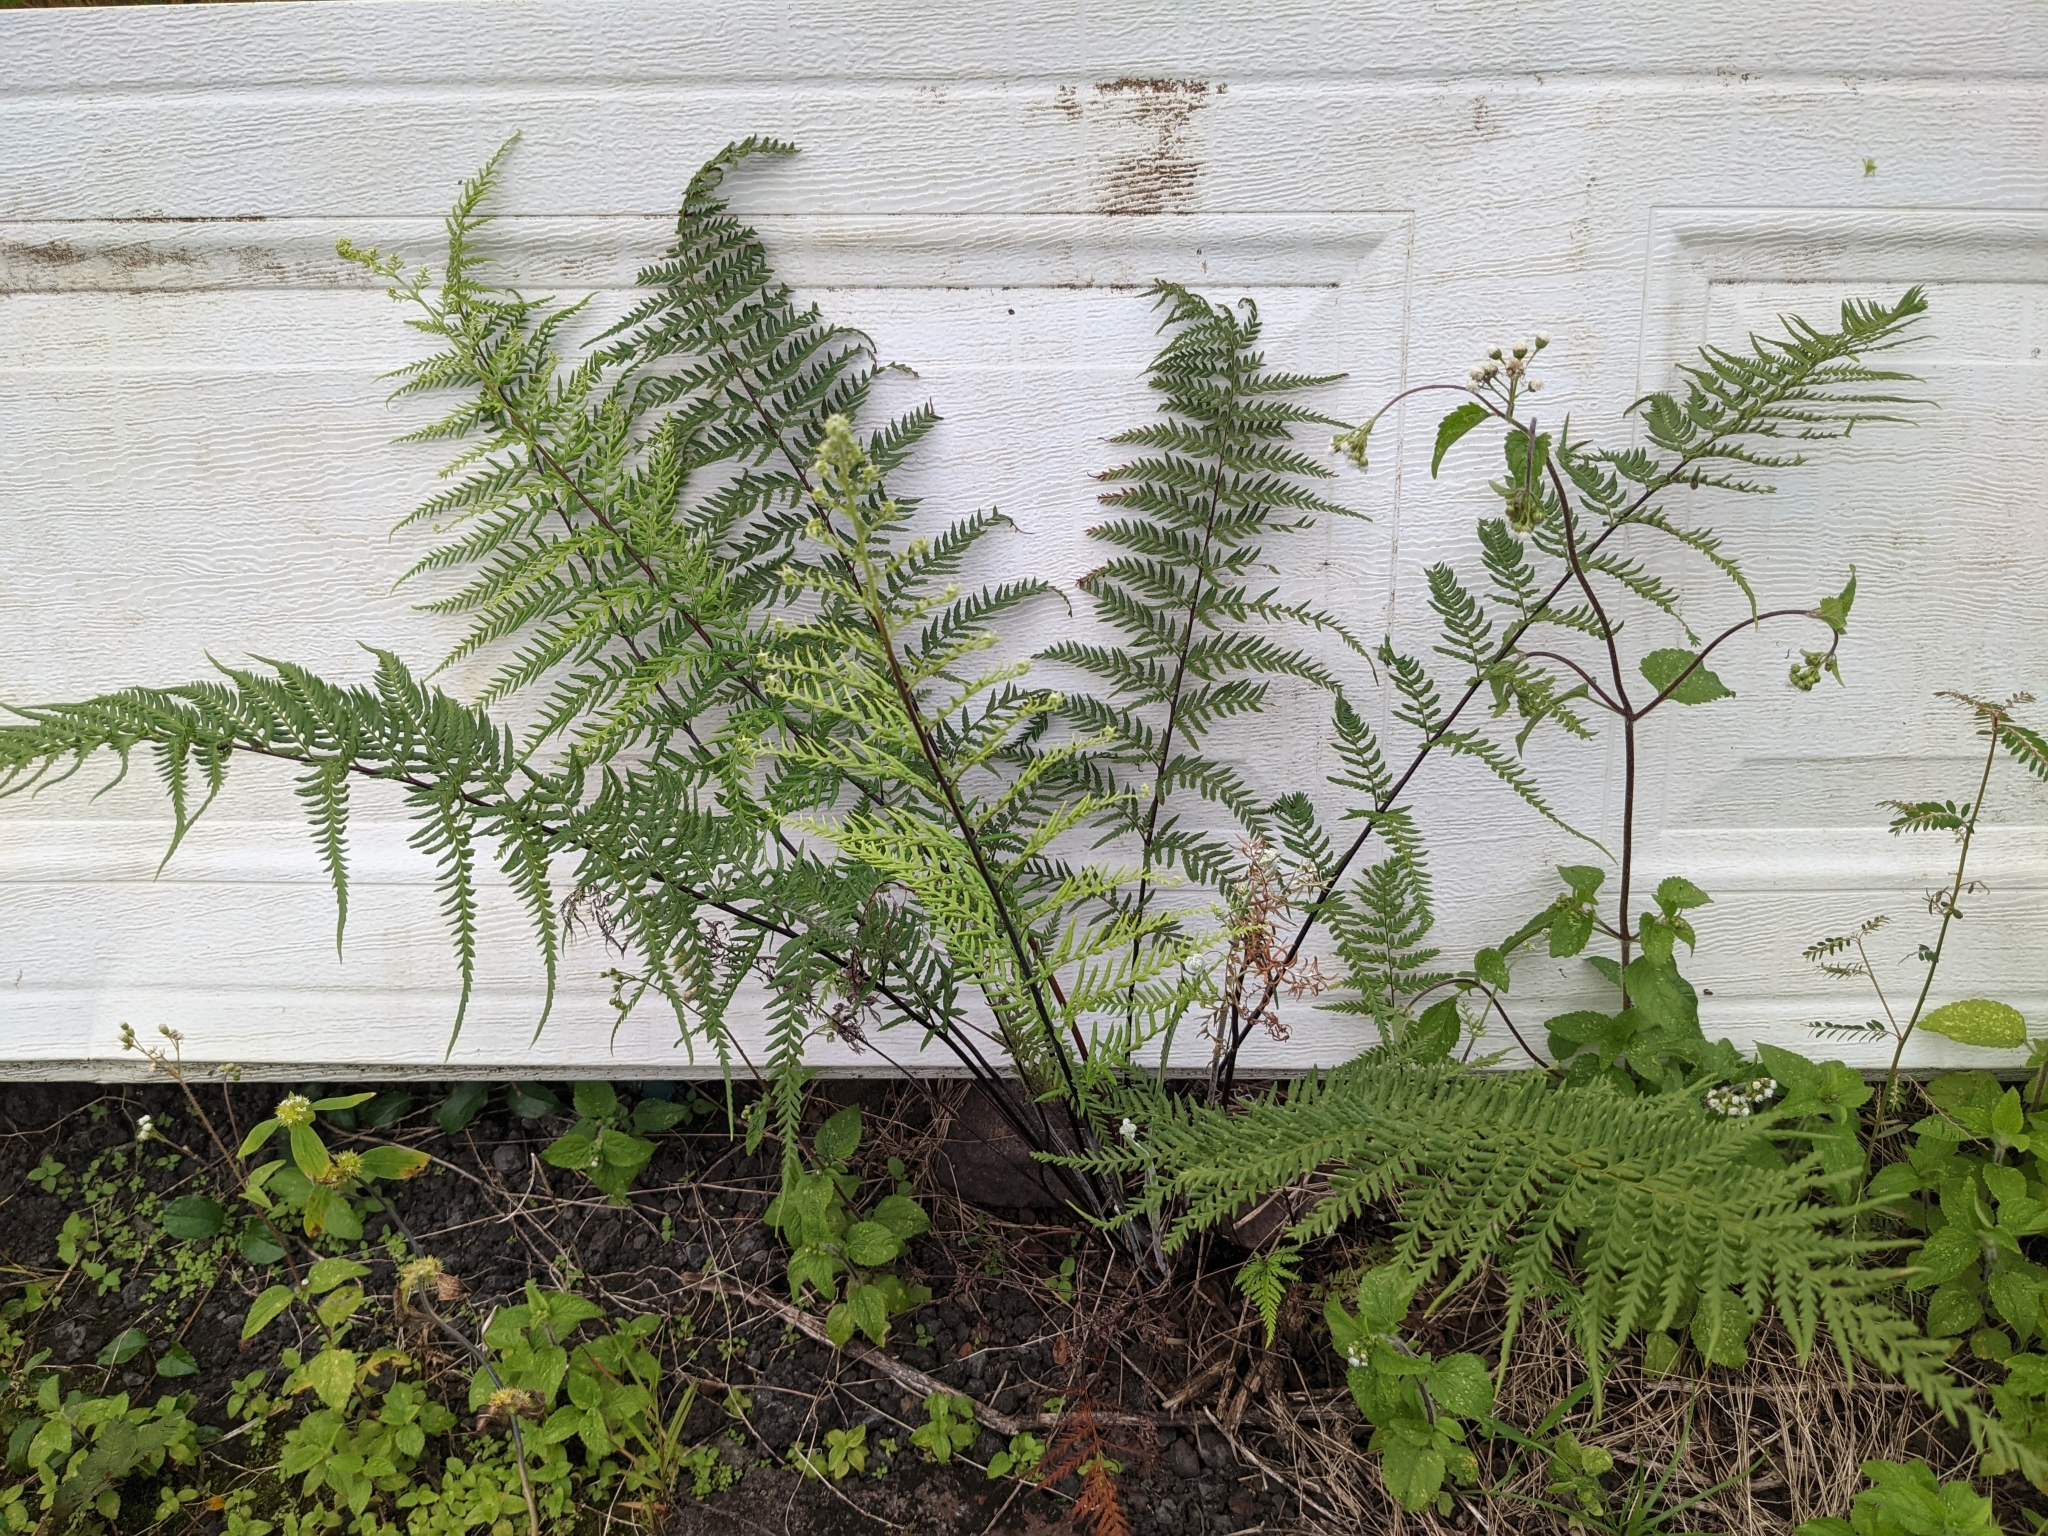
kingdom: Plantae
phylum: Tracheophyta
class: Polypodiopsida
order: Polypodiales
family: Pteridaceae
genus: Pityrogramma
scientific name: Pityrogramma calomelanos
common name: Dixie silverback fern
